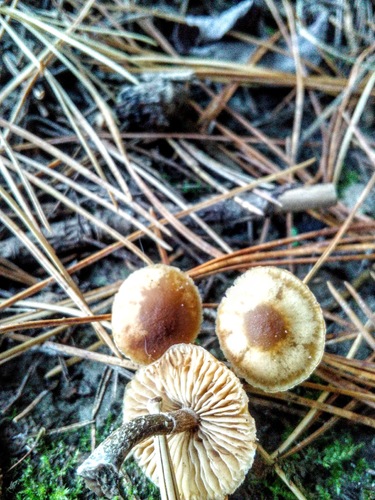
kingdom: Fungi
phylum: Basidiomycota
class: Agaricomycetes
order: Agaricales
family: Hymenogastraceae
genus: Galerina
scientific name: Galerina marginata
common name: Funeral bell
